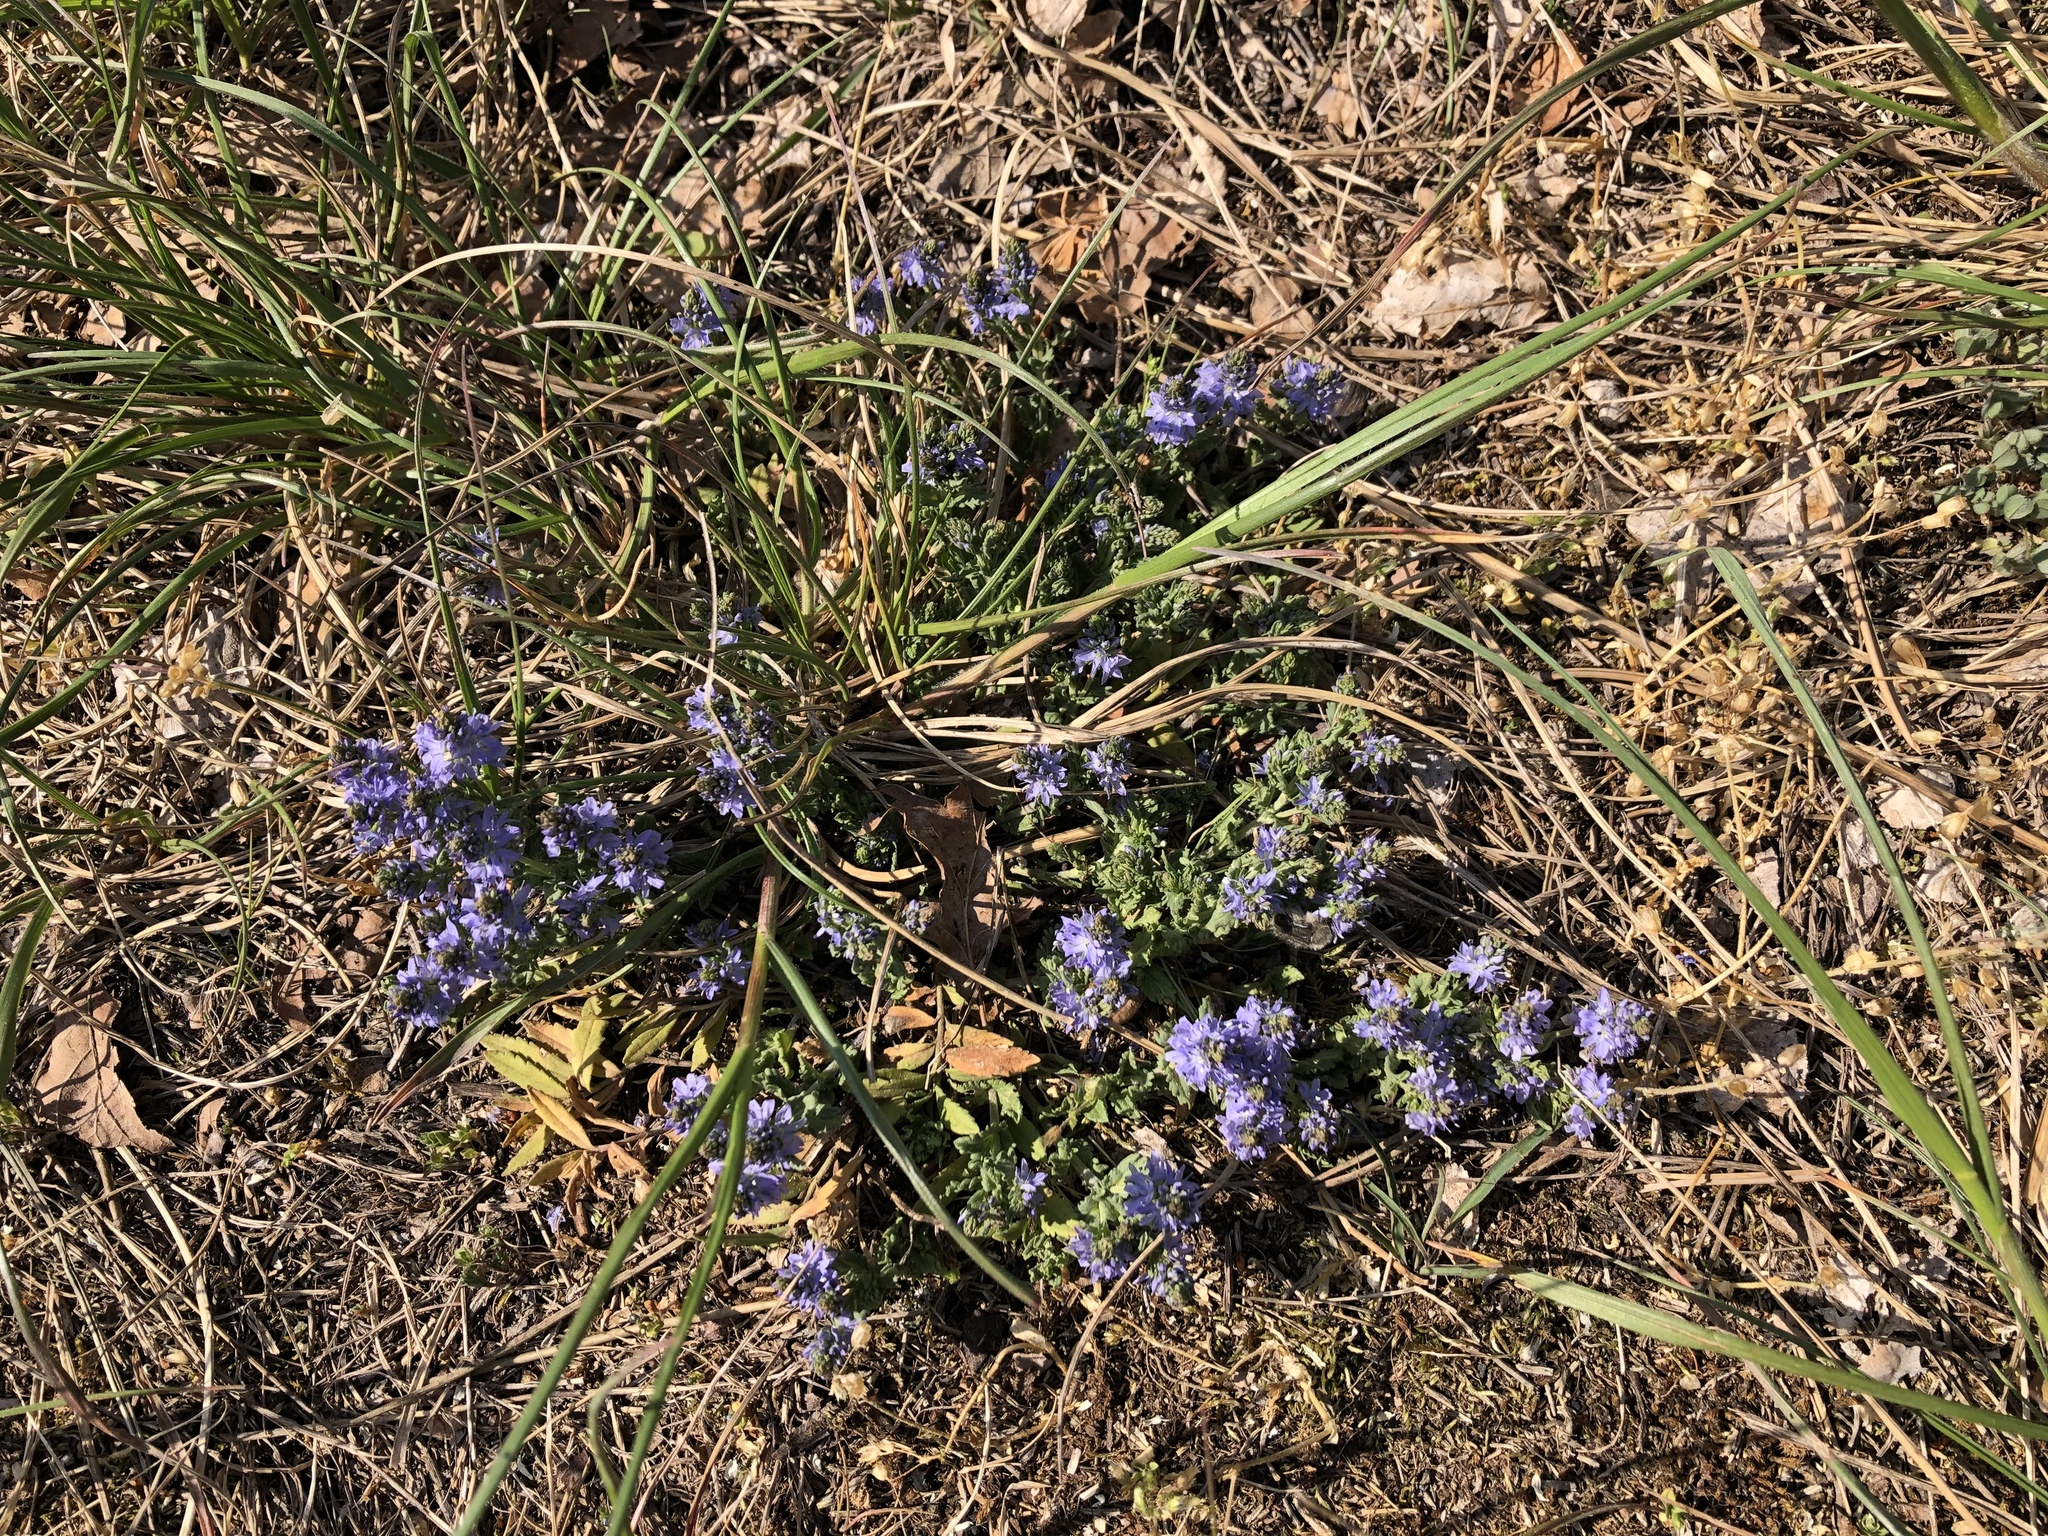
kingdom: Plantae
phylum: Tracheophyta
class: Magnoliopsida
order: Lamiales
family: Plantaginaceae
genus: Veronica
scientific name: Veronica prostrata
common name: Prostrate speedwell
